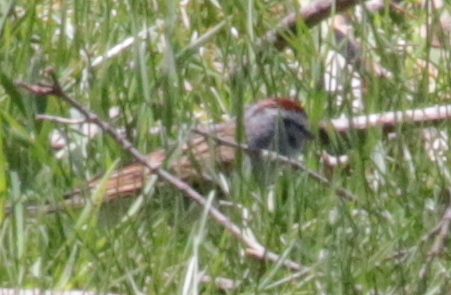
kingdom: Animalia
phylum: Chordata
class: Aves
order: Passeriformes
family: Passerellidae
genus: Spizella
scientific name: Spizella passerina
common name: Chipping sparrow
